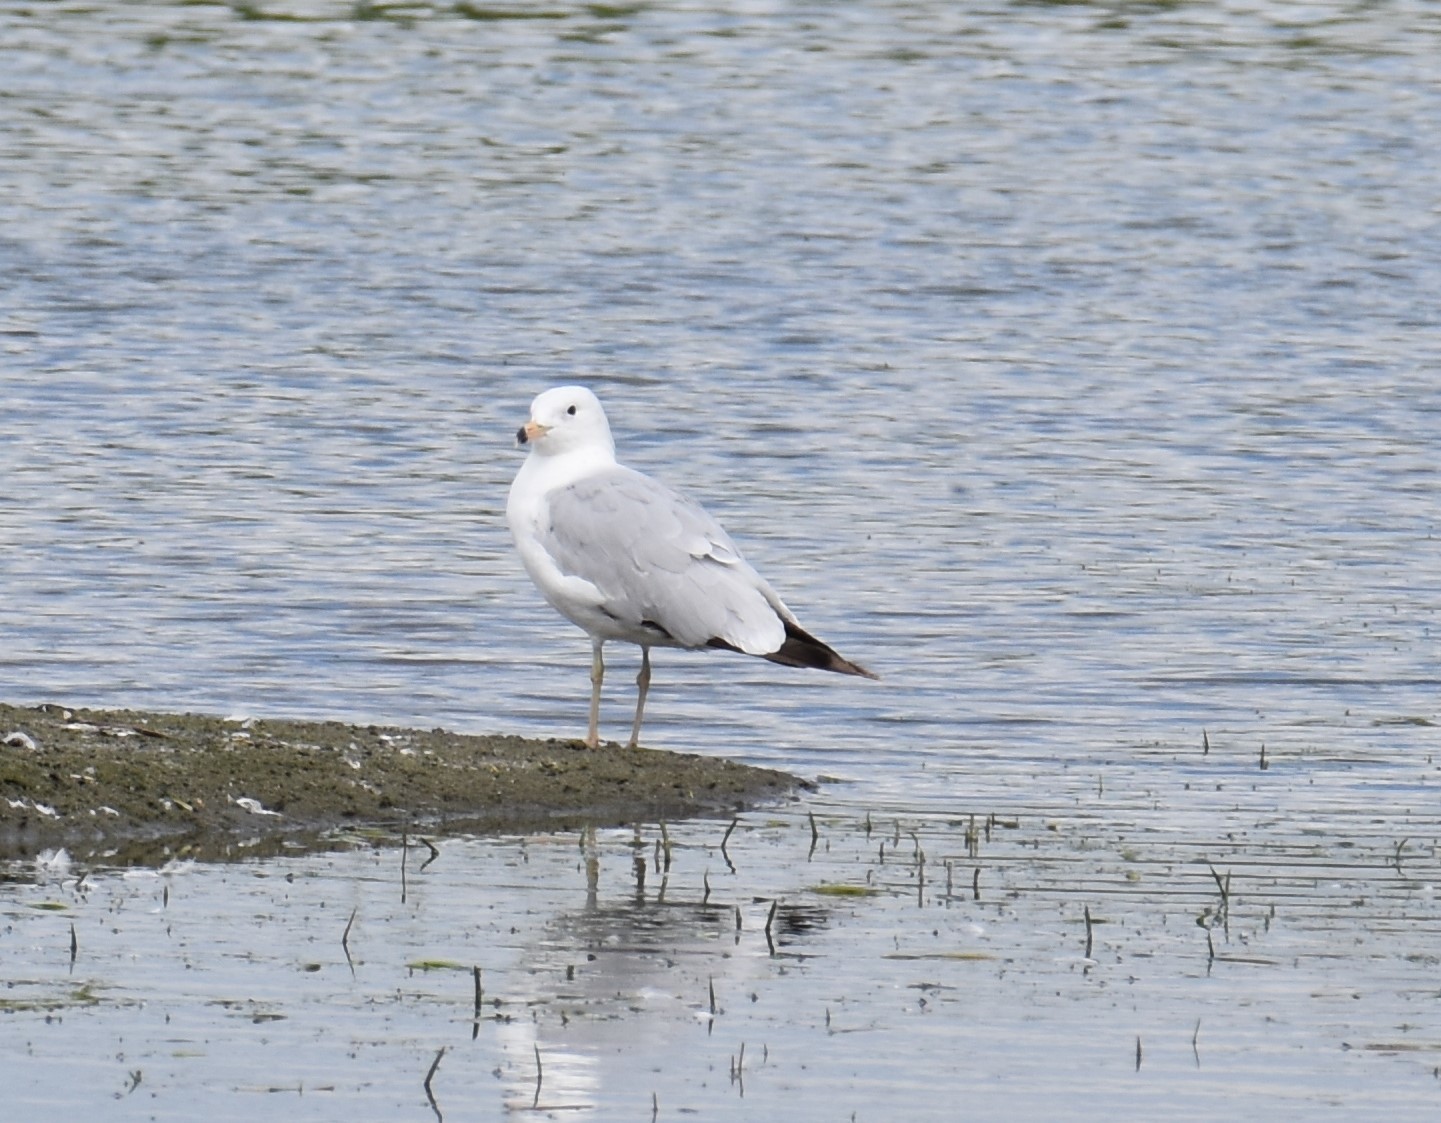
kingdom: Animalia
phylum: Chordata
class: Aves
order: Charadriiformes
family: Laridae
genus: Larus
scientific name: Larus delawarensis
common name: Ring-billed gull
